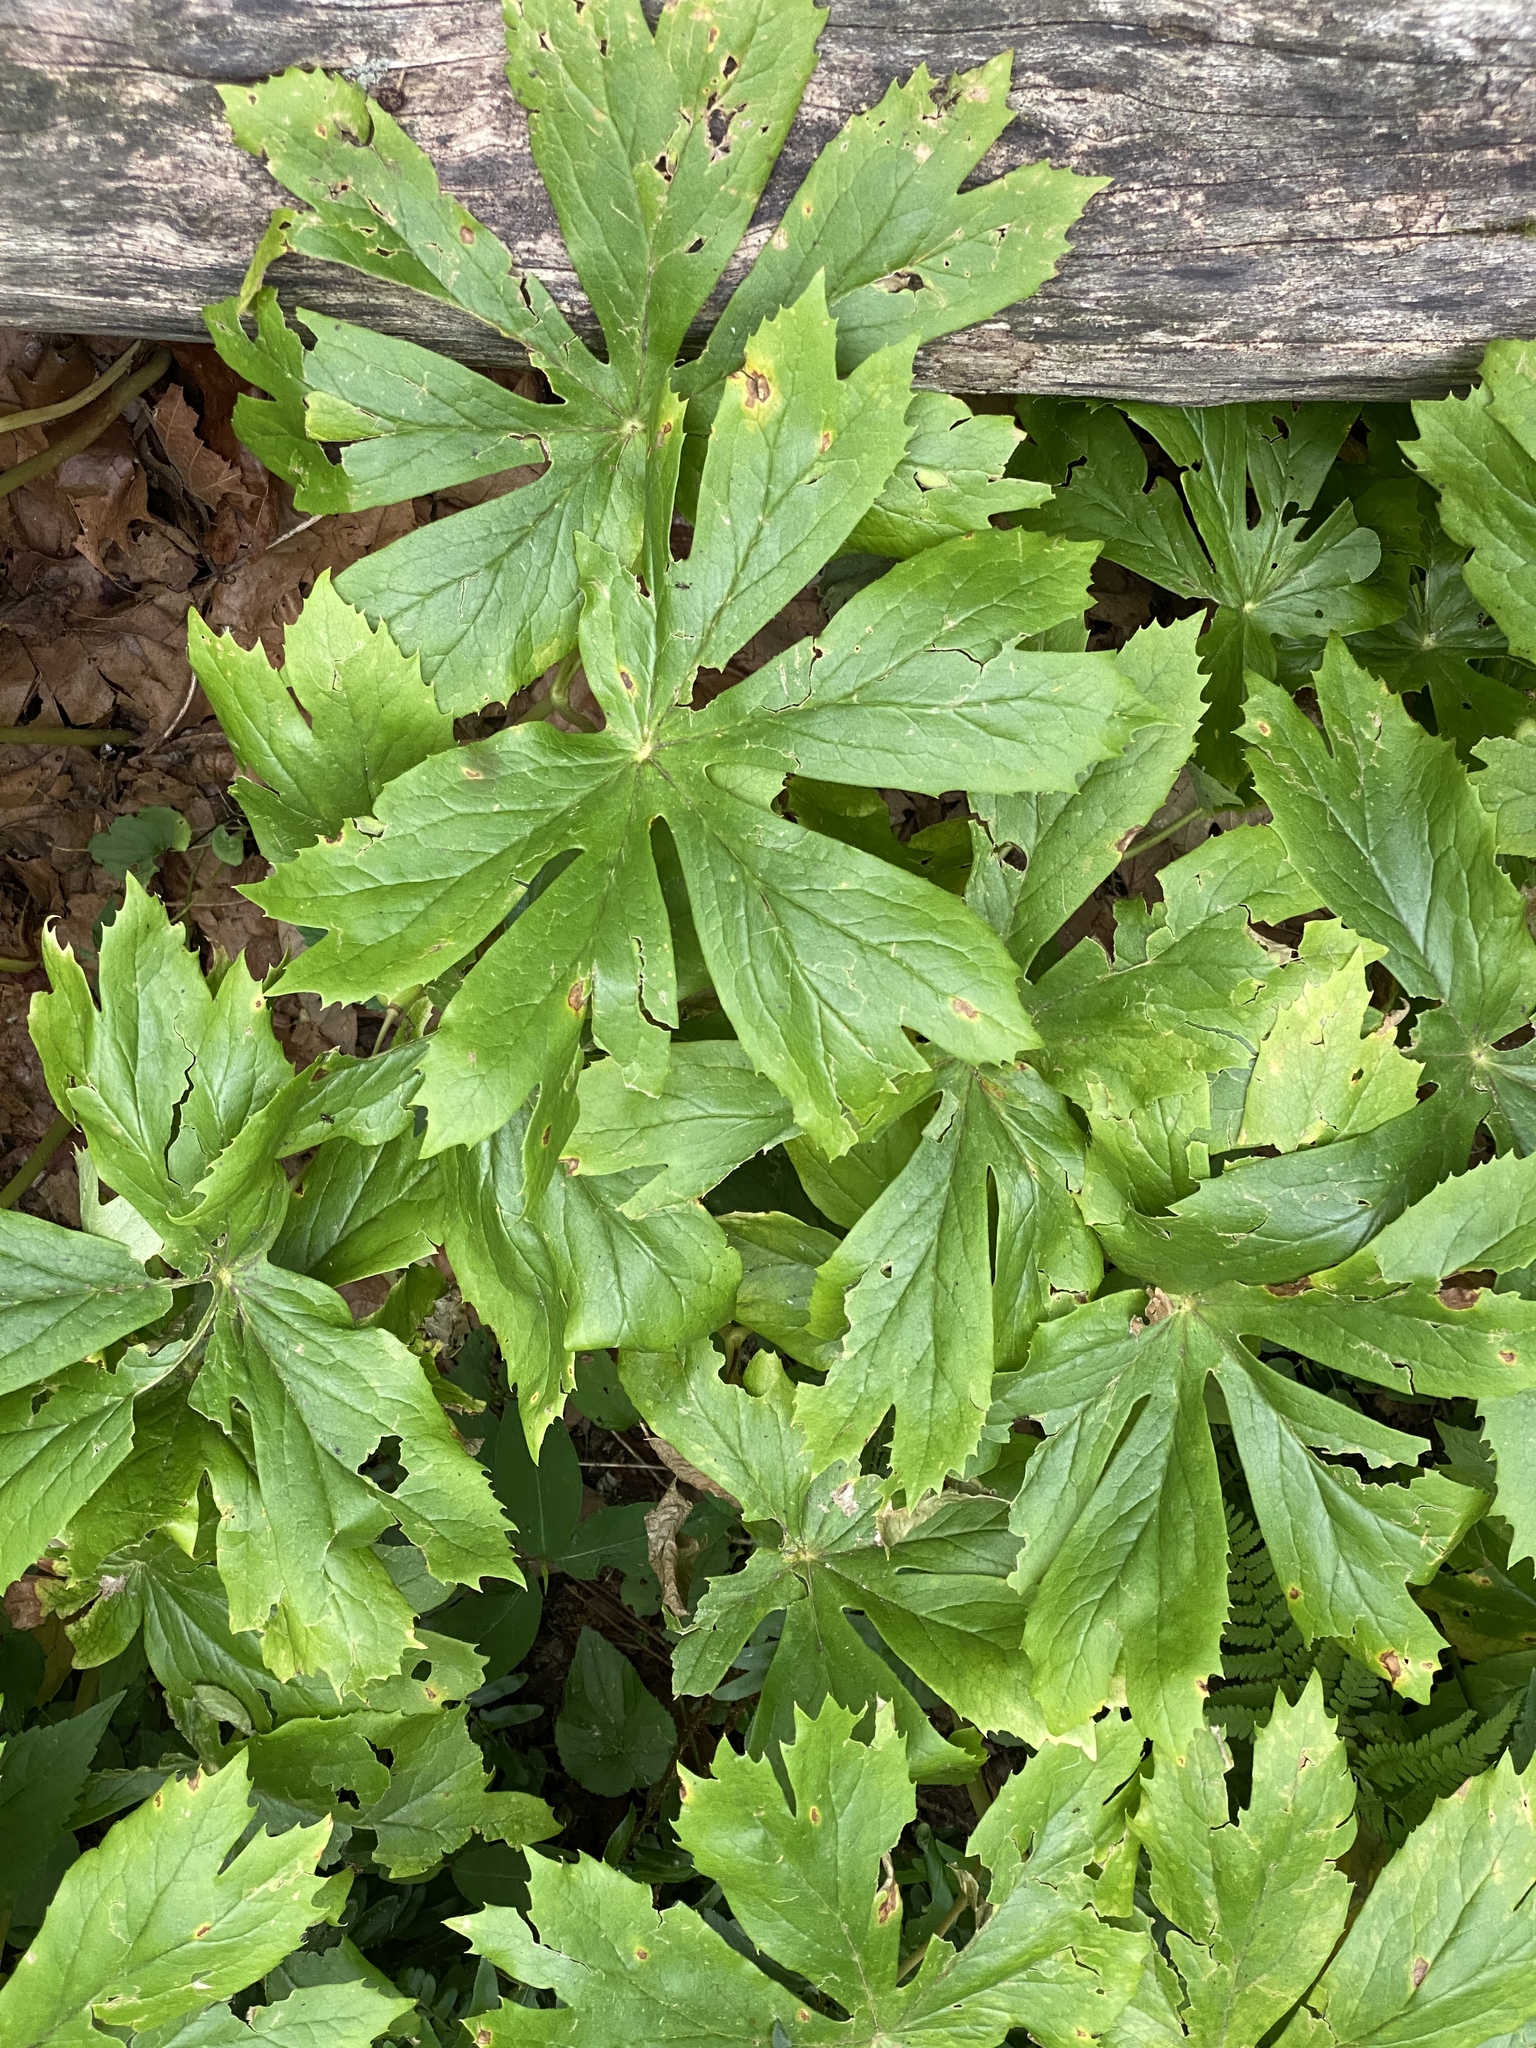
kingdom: Plantae
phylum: Tracheophyta
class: Magnoliopsida
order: Ranunculales
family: Berberidaceae
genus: Podophyllum
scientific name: Podophyllum peltatum
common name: Wild mandrake
